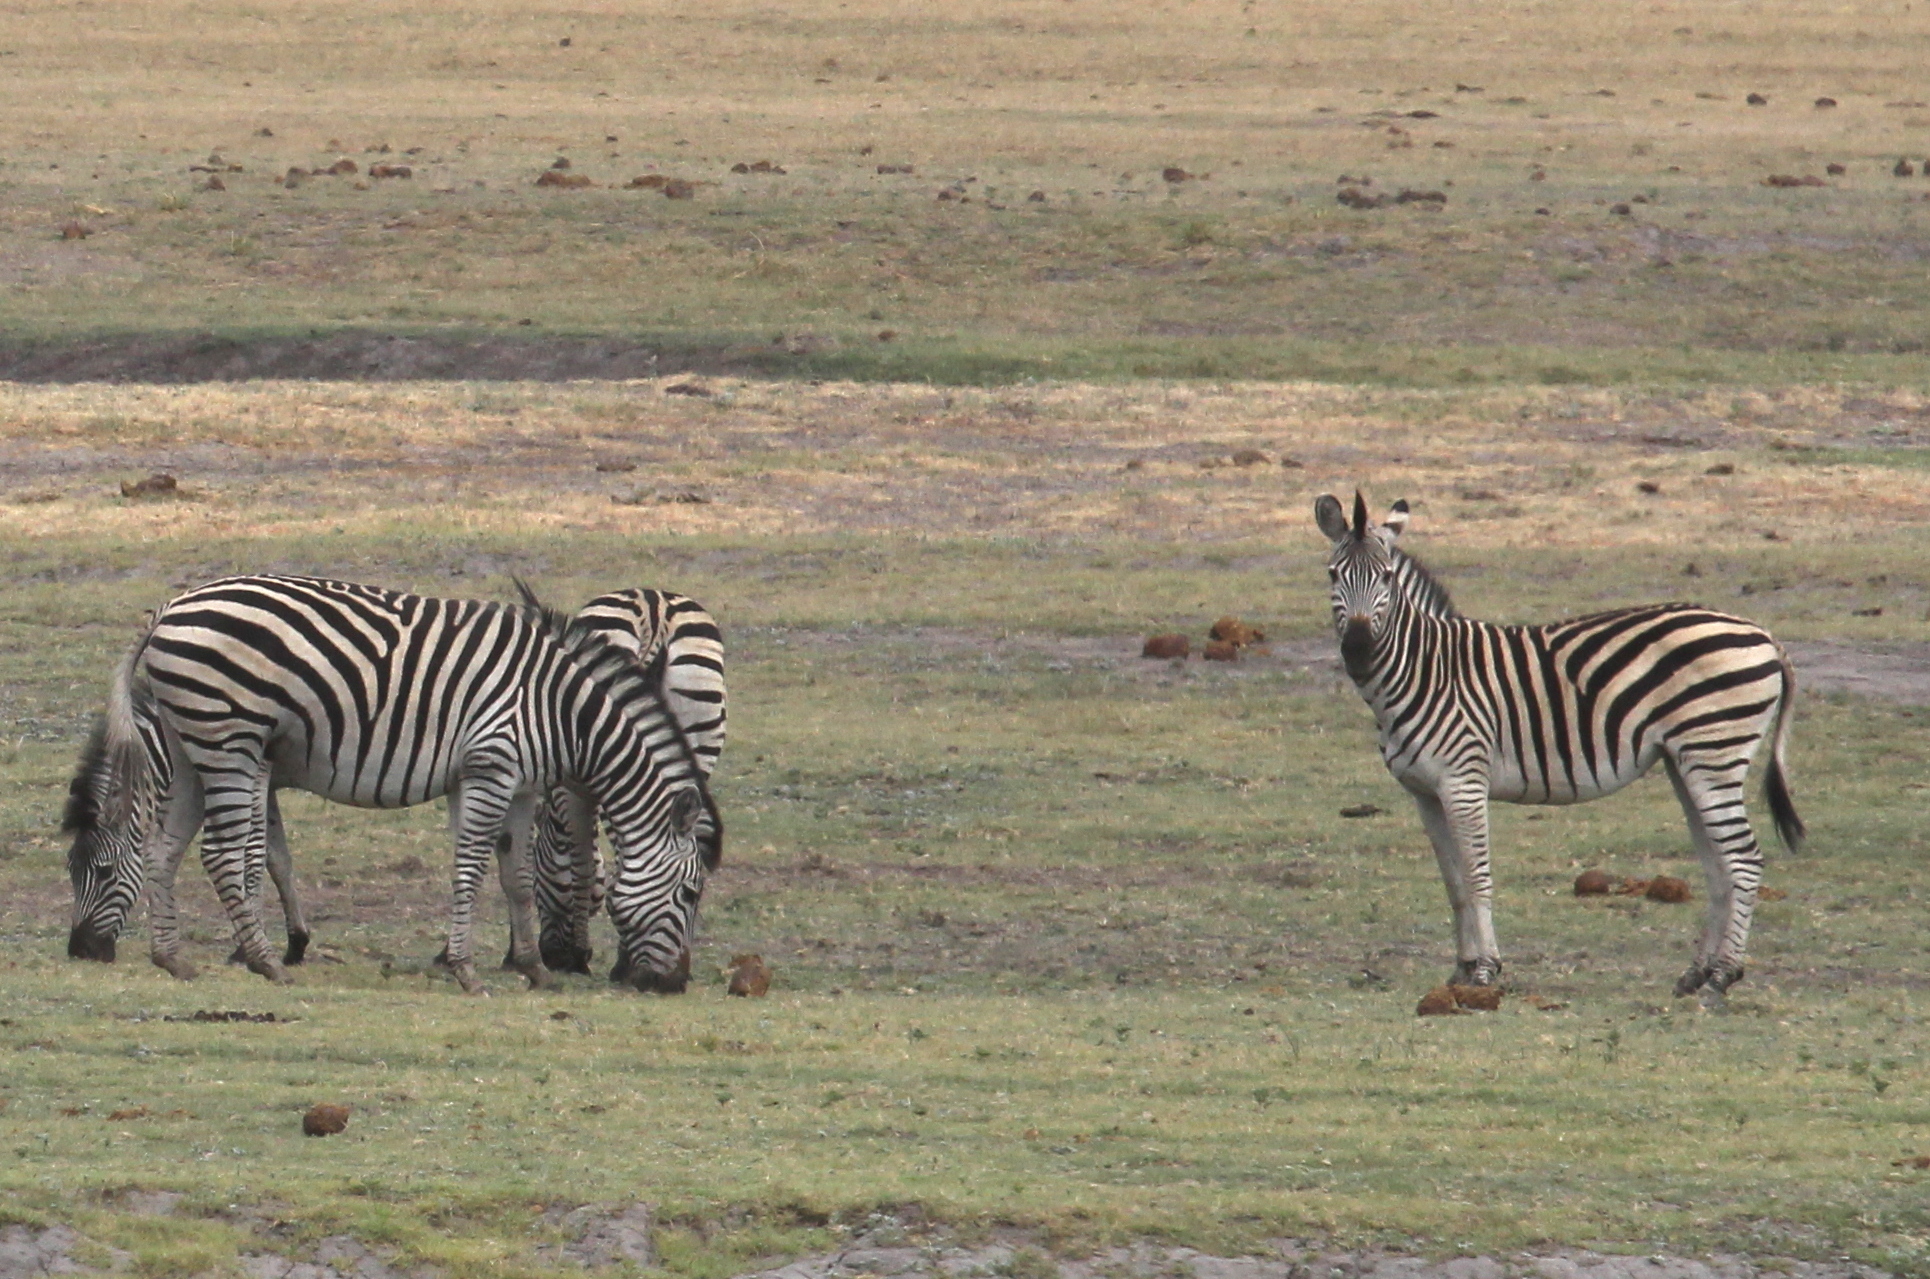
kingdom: Animalia
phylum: Chordata
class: Mammalia
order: Perissodactyla
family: Equidae
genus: Equus
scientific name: Equus quagga
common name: Plains zebra
